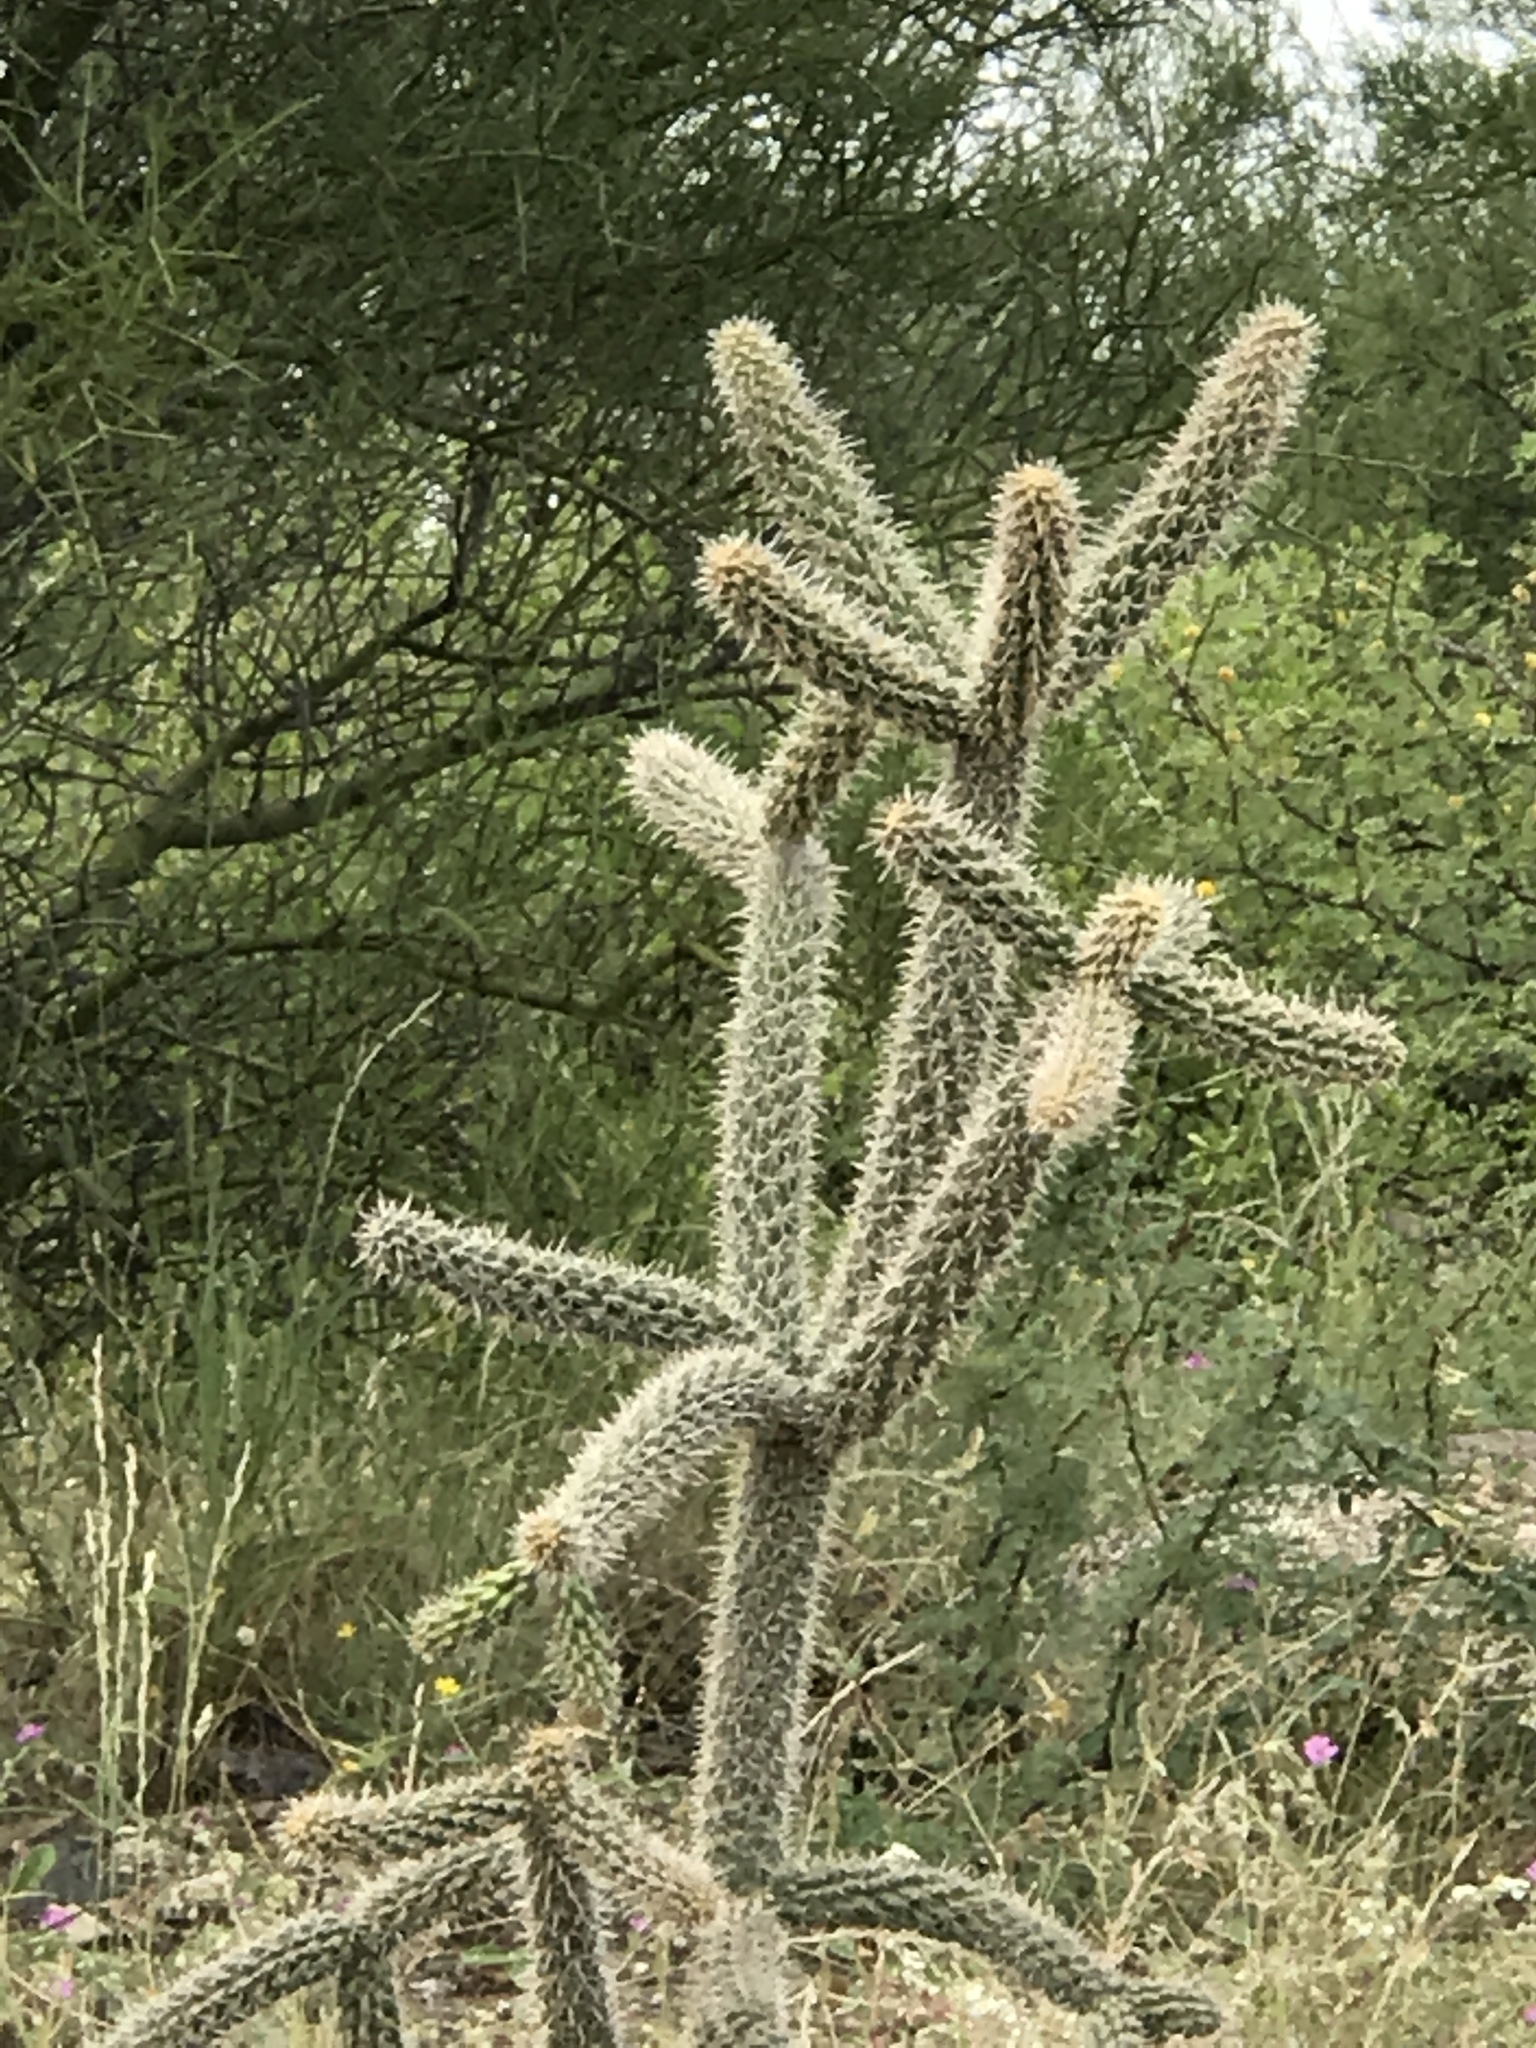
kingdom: Plantae
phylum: Tracheophyta
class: Magnoliopsida
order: Caryophyllales
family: Cactaceae
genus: Cylindropuntia
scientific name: Cylindropuntia imbricata
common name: Candelabrum cactus
